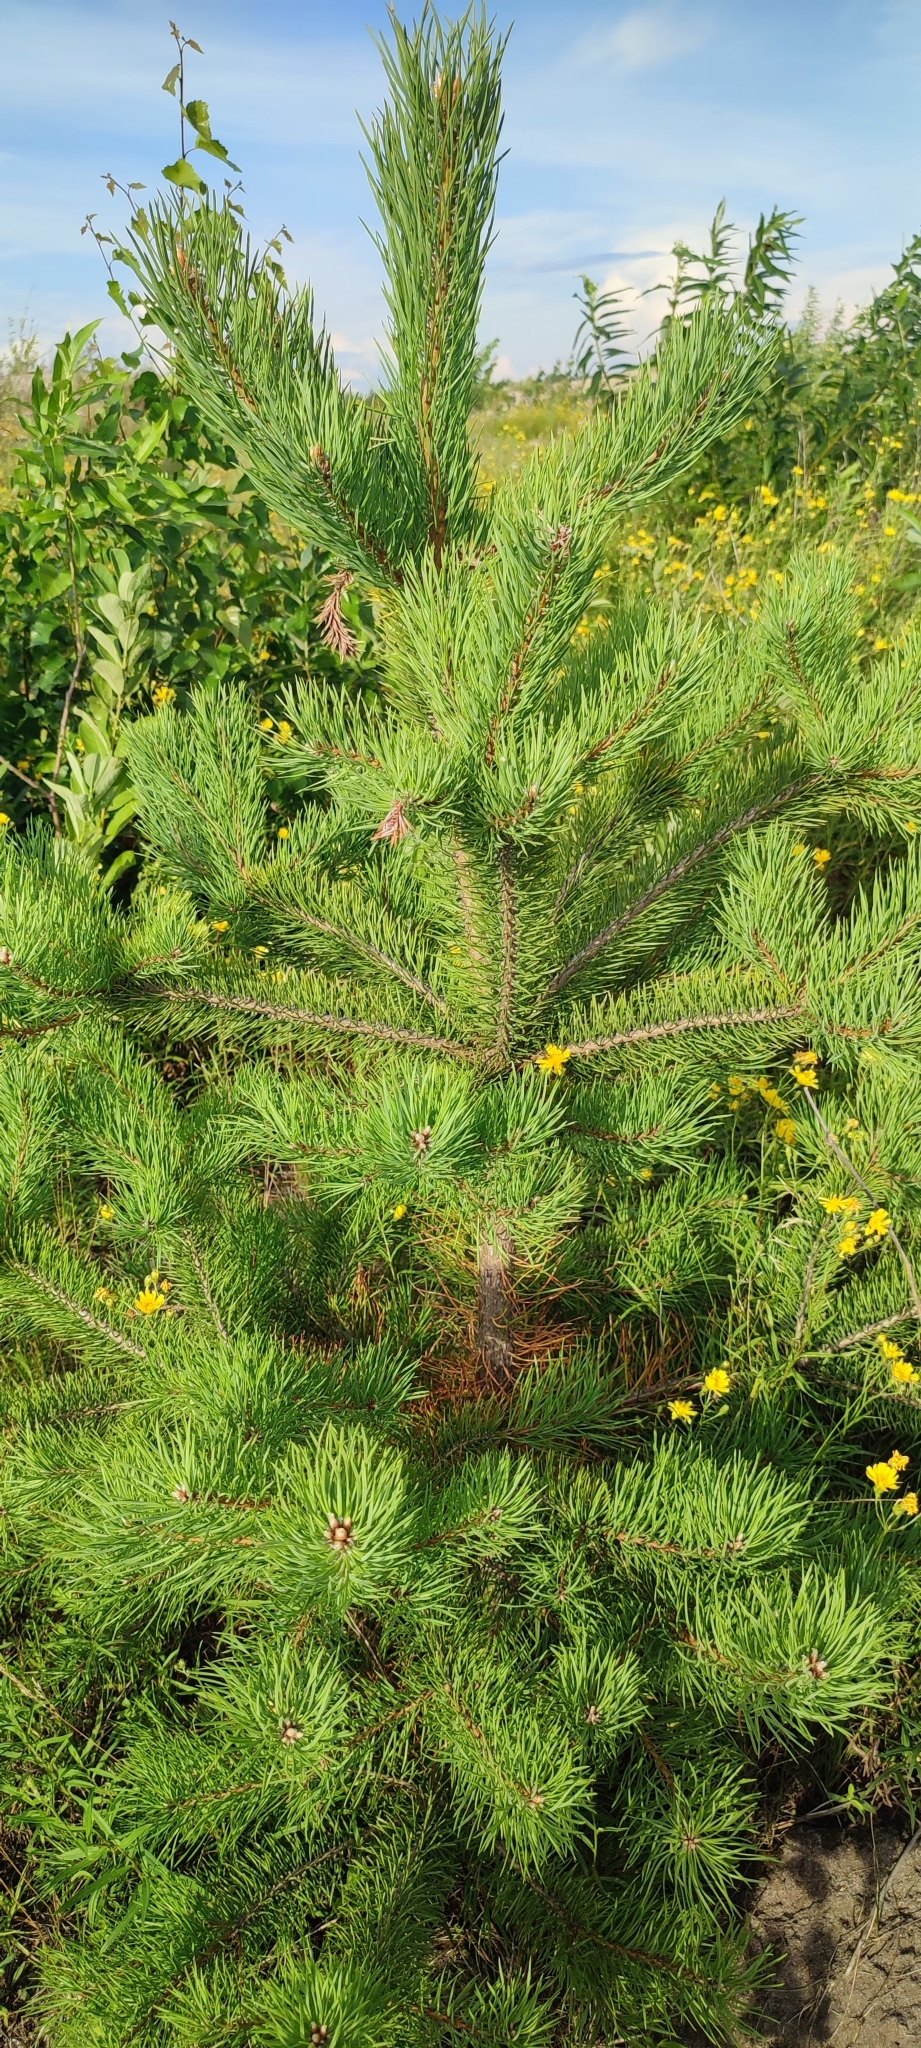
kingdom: Plantae
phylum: Tracheophyta
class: Pinopsida
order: Pinales
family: Pinaceae
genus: Pinus
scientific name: Pinus sylvestris
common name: Scots pine
